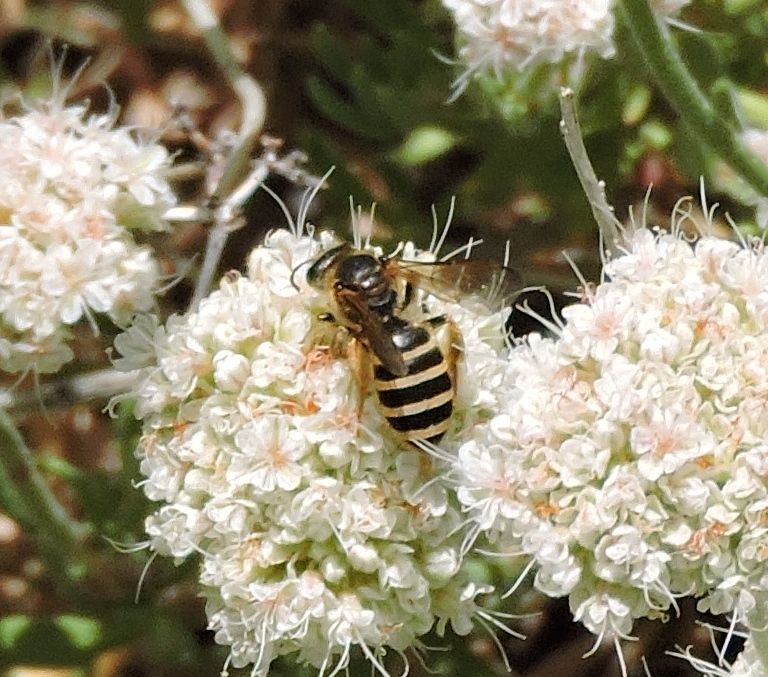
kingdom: Animalia
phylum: Arthropoda
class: Insecta
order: Hymenoptera
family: Halictidae
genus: Halictus
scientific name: Halictus farinosus
